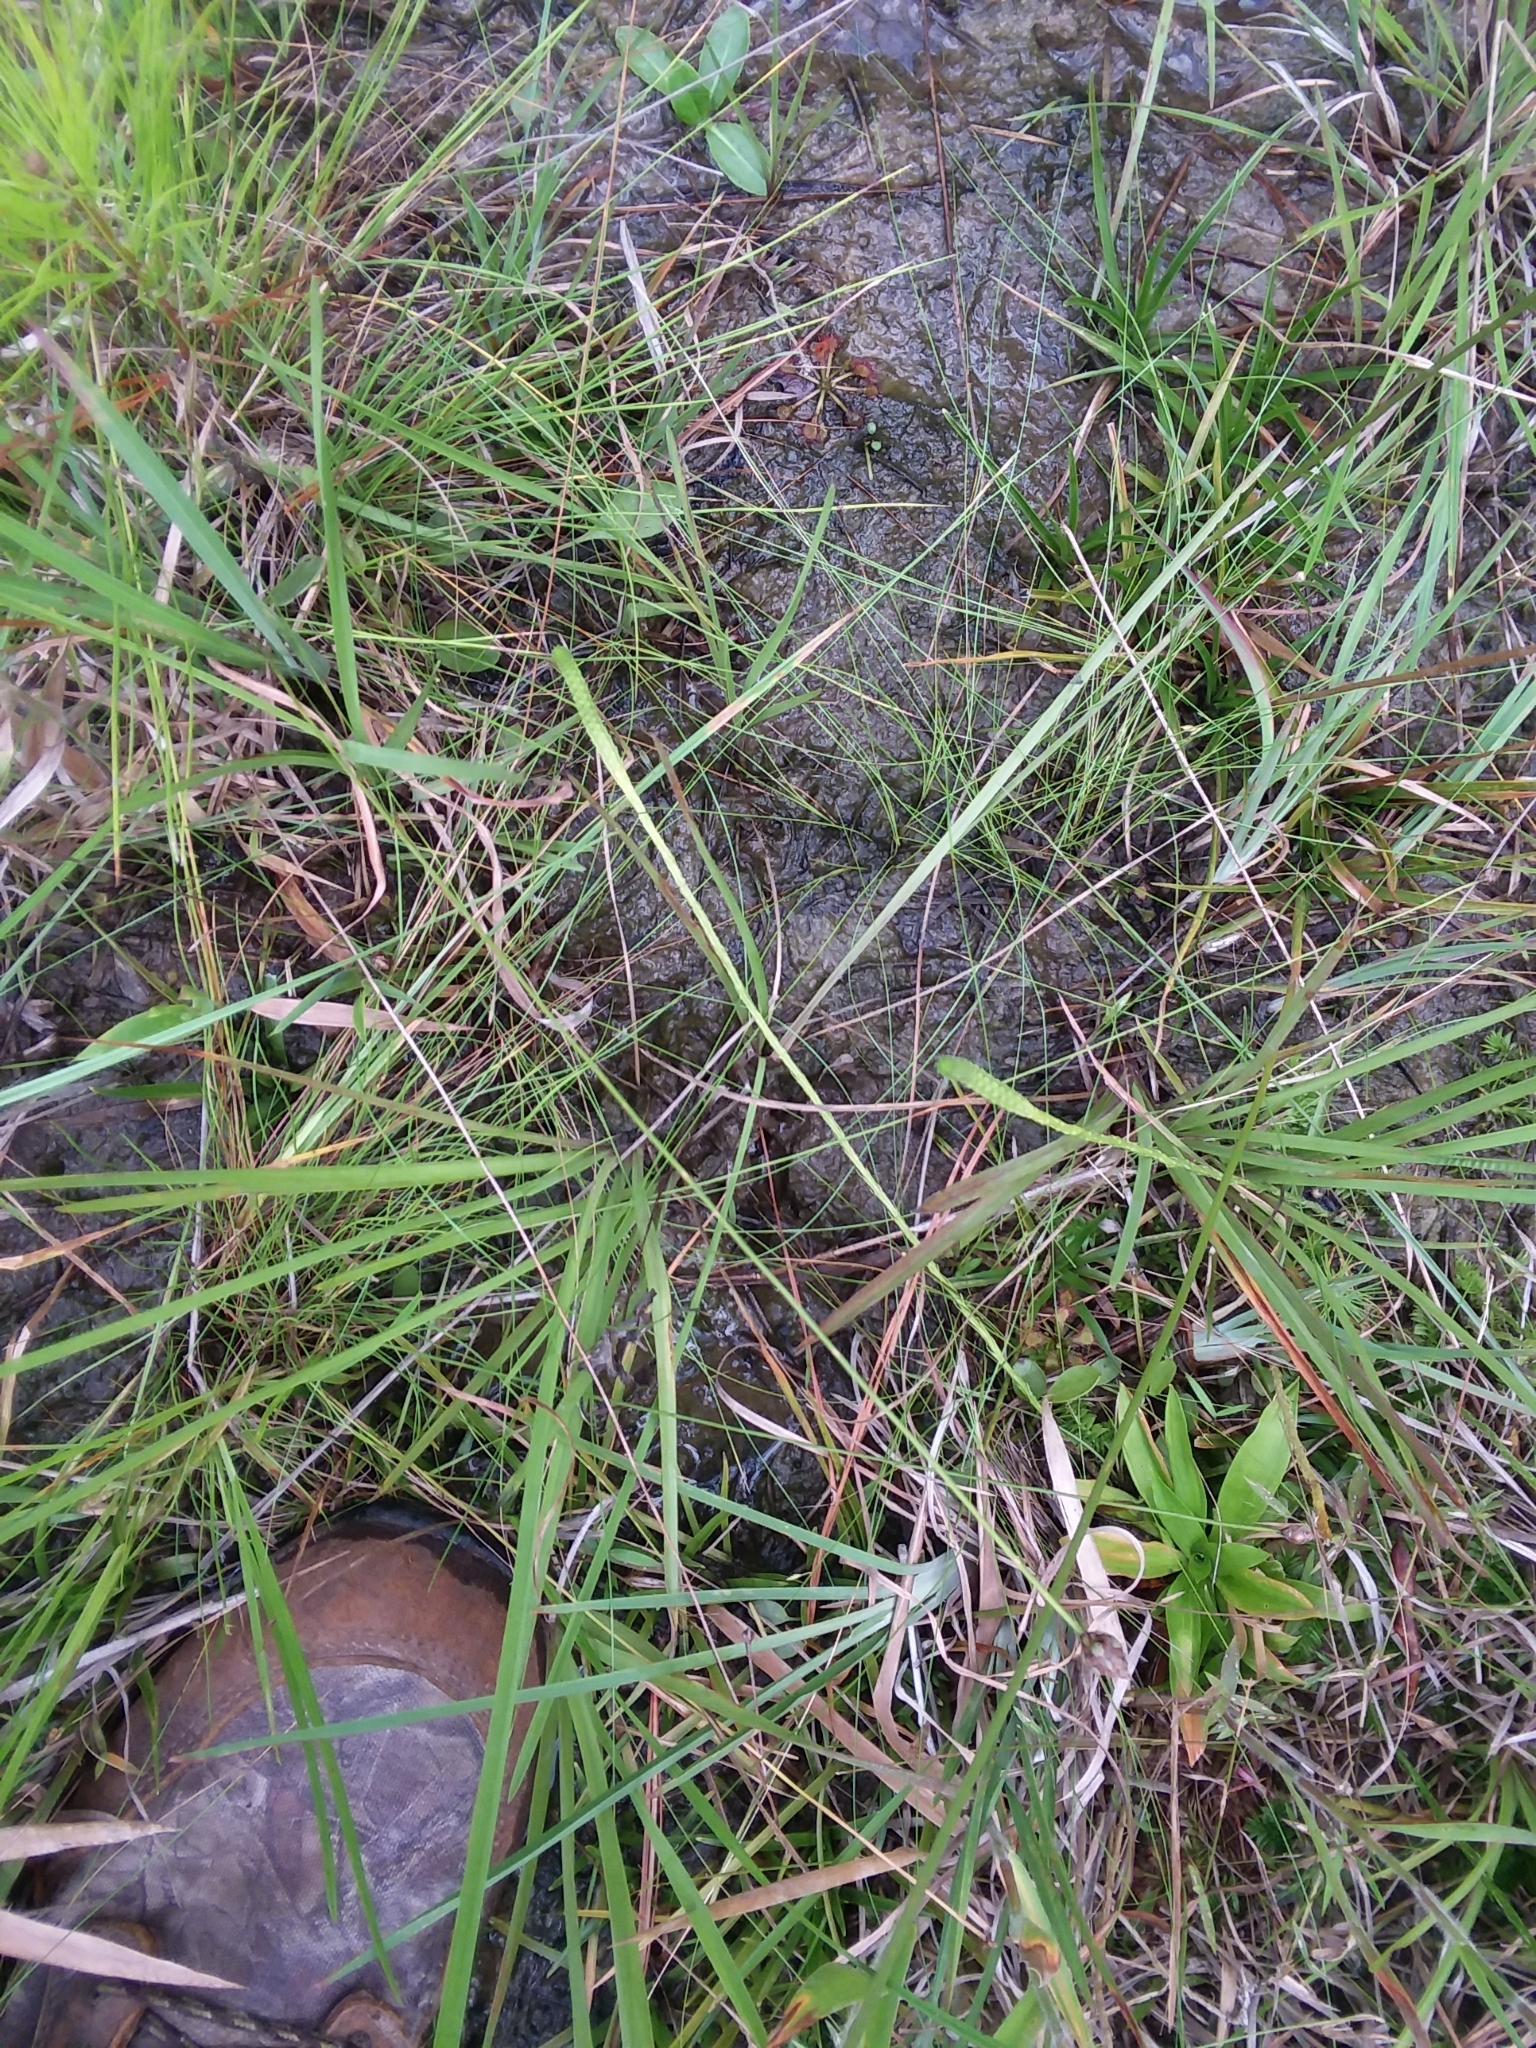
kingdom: Plantae
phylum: Tracheophyta
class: Lycopodiopsida
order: Lycopodiales
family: Lycopodiaceae
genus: Pseudolycopodiella
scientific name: Pseudolycopodiella caroliniana
